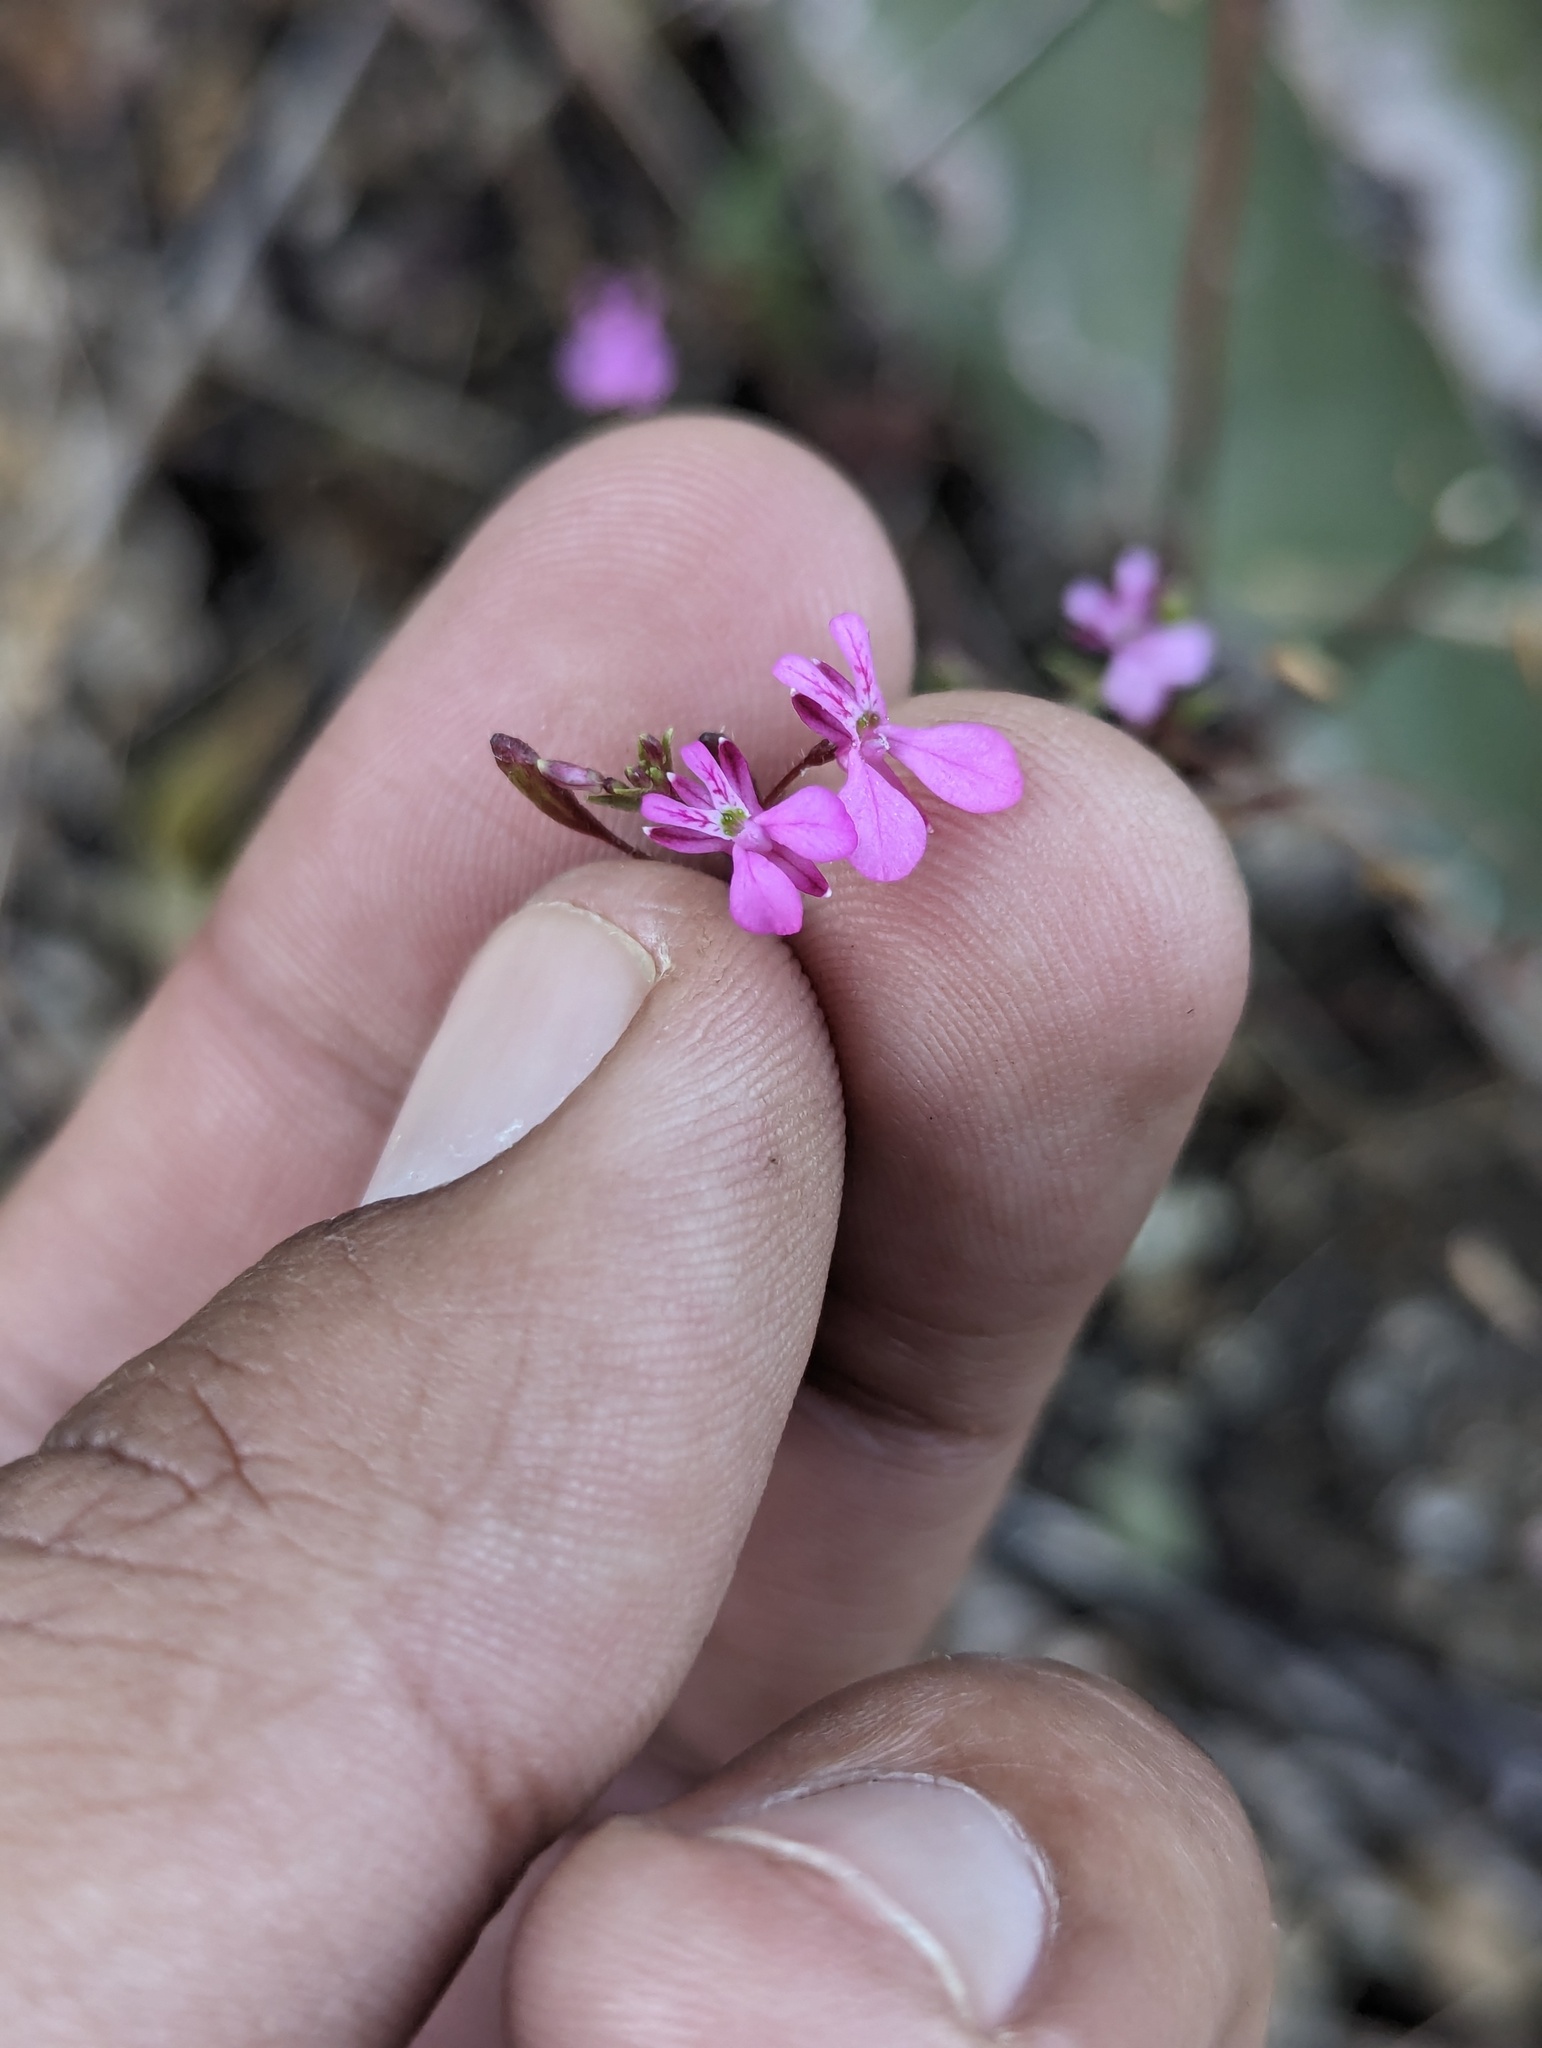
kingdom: Plantae
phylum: Tracheophyta
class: Magnoliopsida
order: Lamiales
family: Lamiaceae
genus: Stachys
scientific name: Stachys tenerrima
